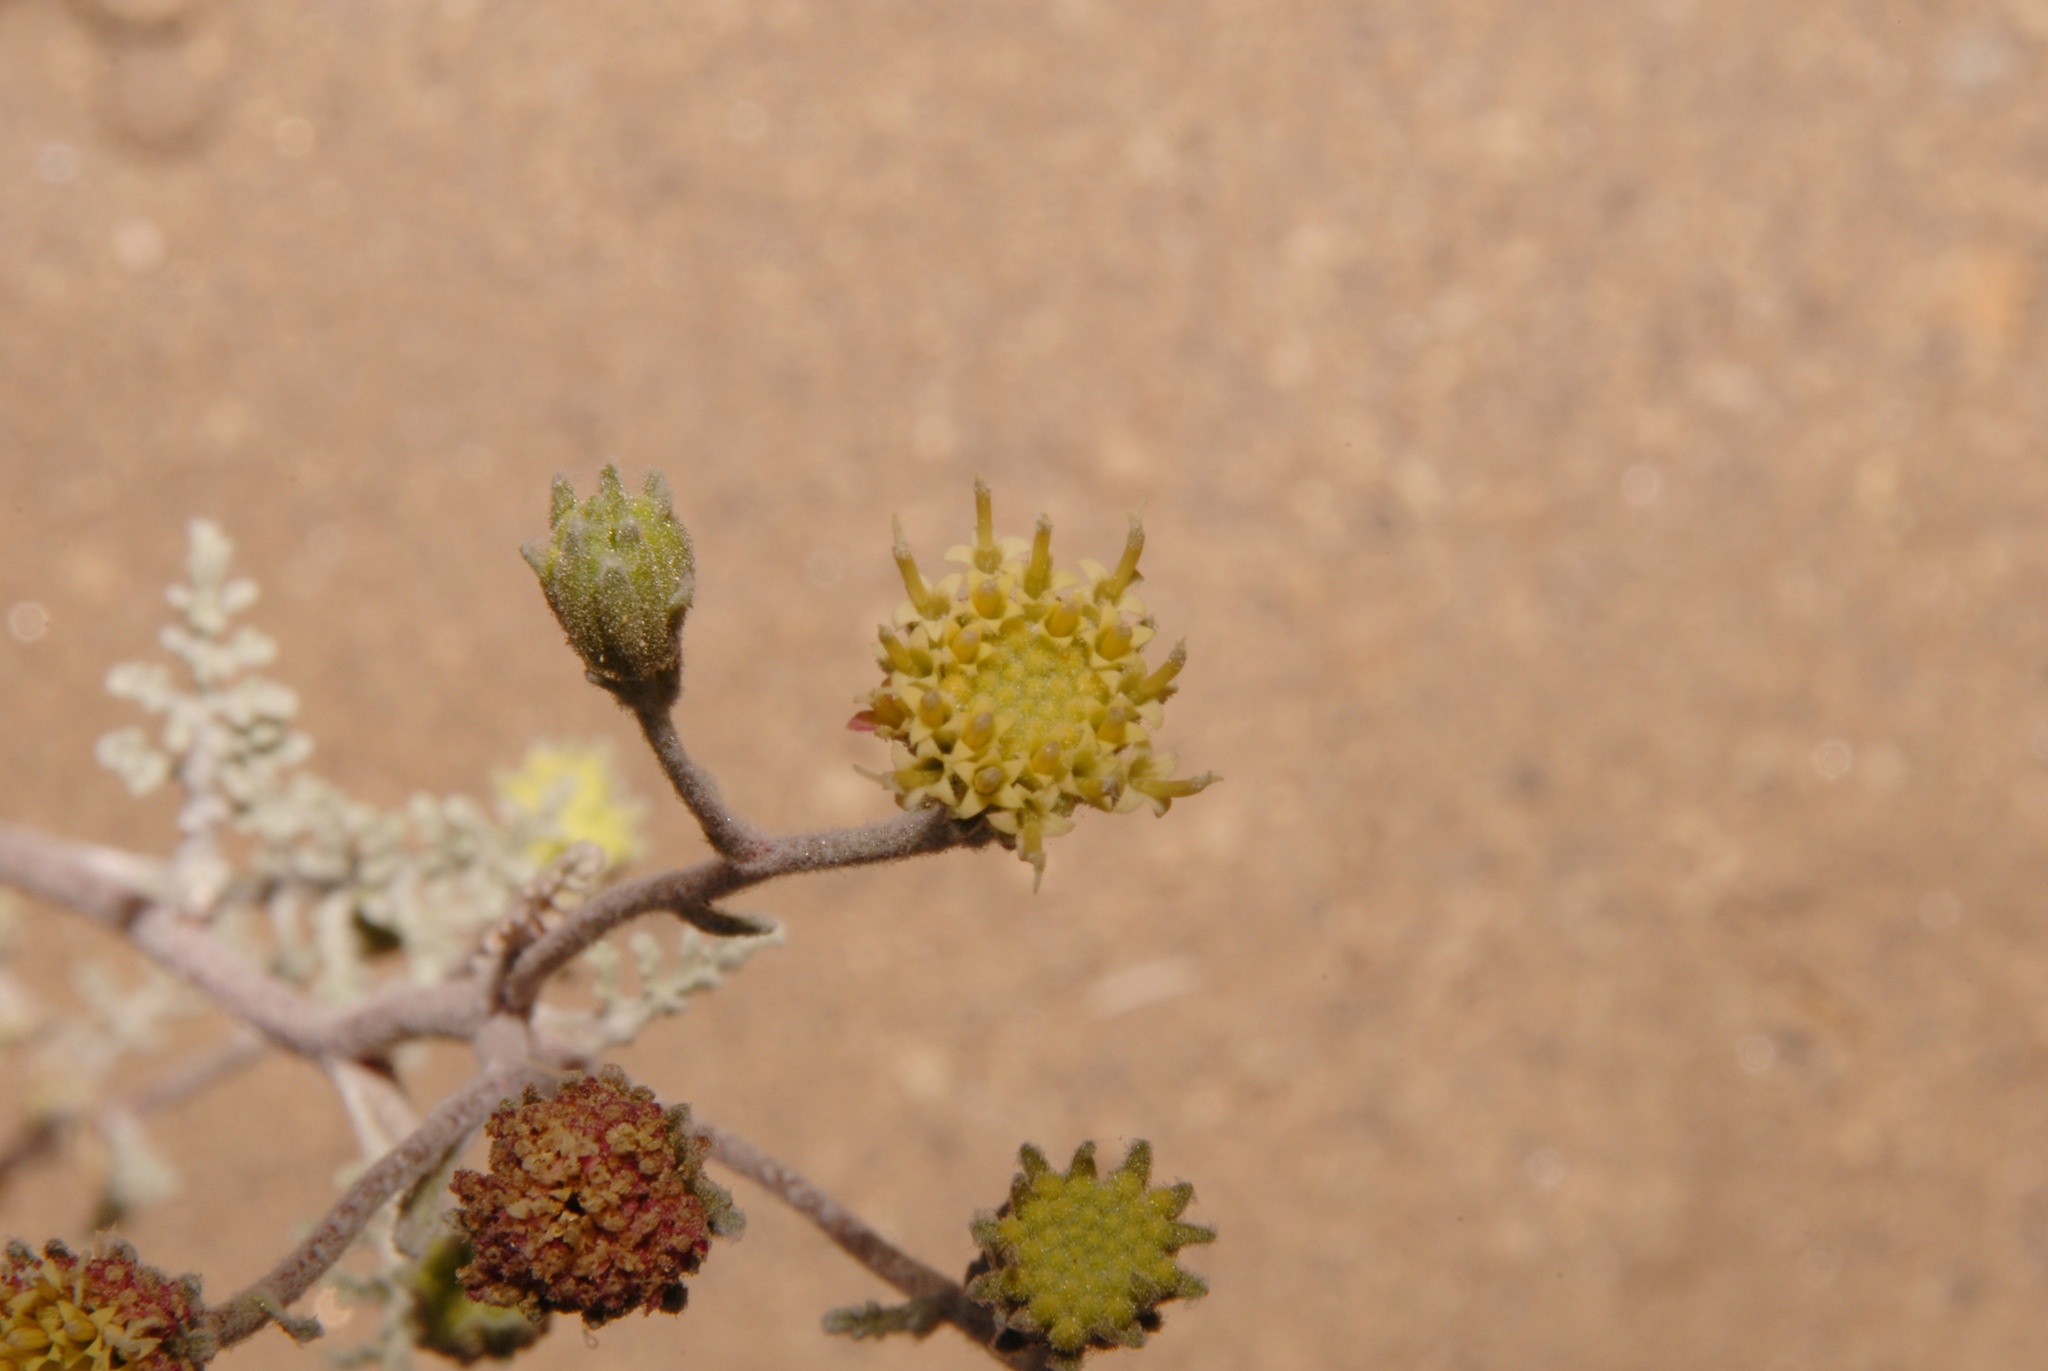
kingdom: Plantae
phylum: Tracheophyta
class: Magnoliopsida
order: Asterales
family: Asteraceae
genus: Chaenactis
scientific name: Chaenactis douglasii
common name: Hoary pincushion
